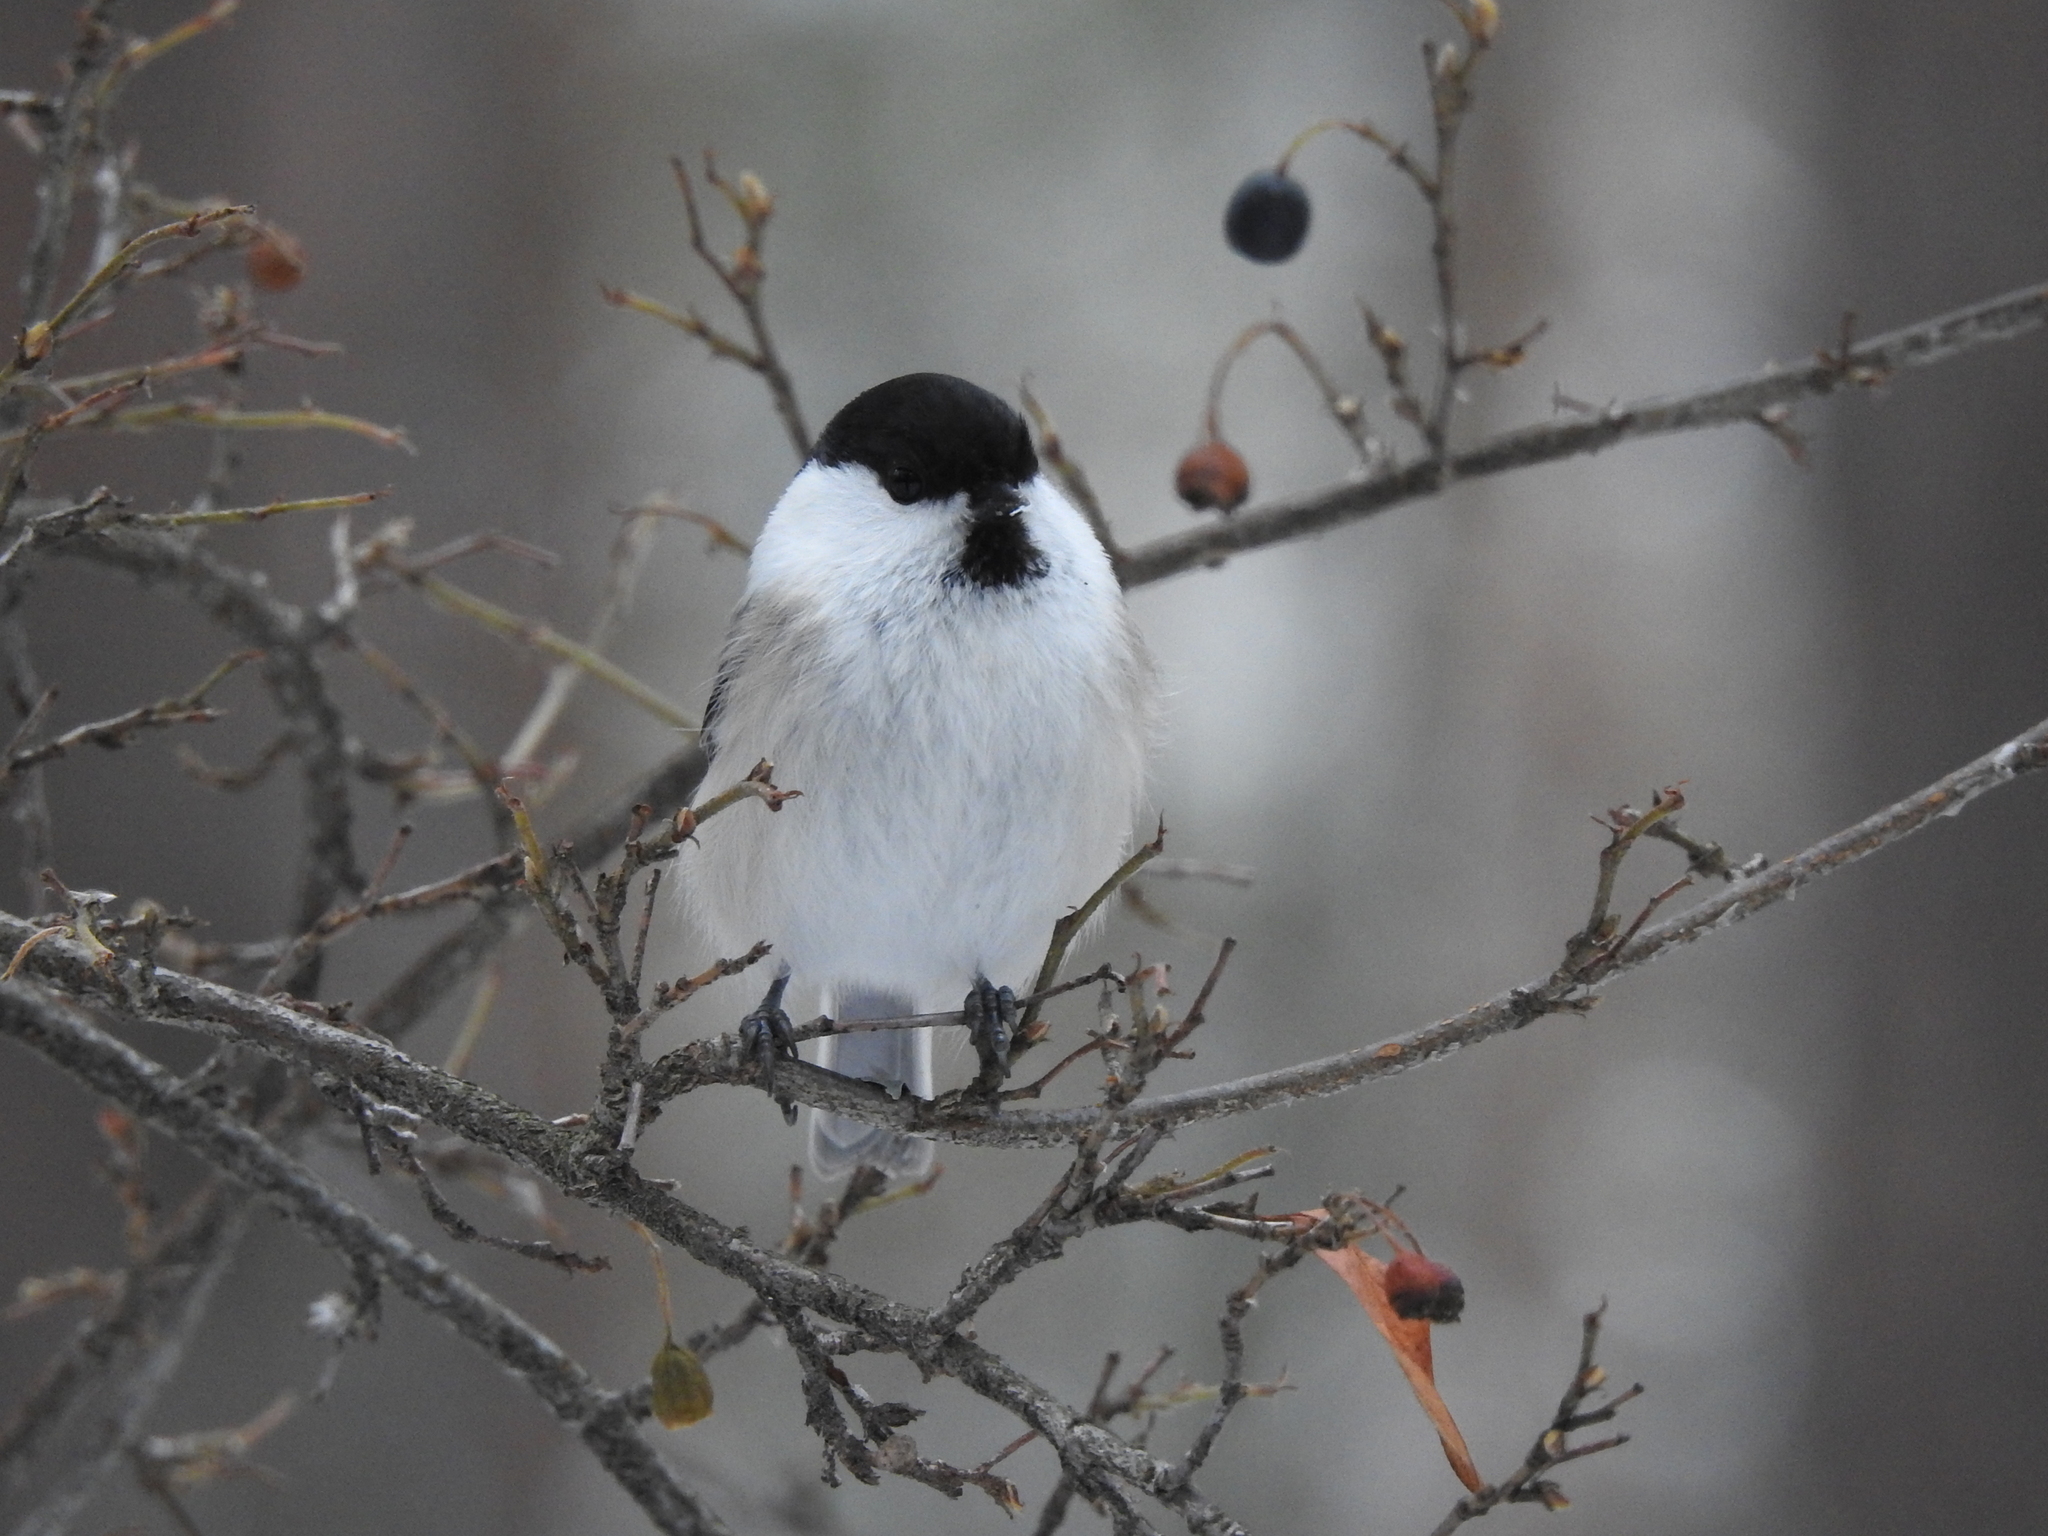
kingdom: Animalia
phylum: Chordata
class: Aves
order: Passeriformes
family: Paridae
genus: Poecile
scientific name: Poecile montanus
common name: Willow tit
